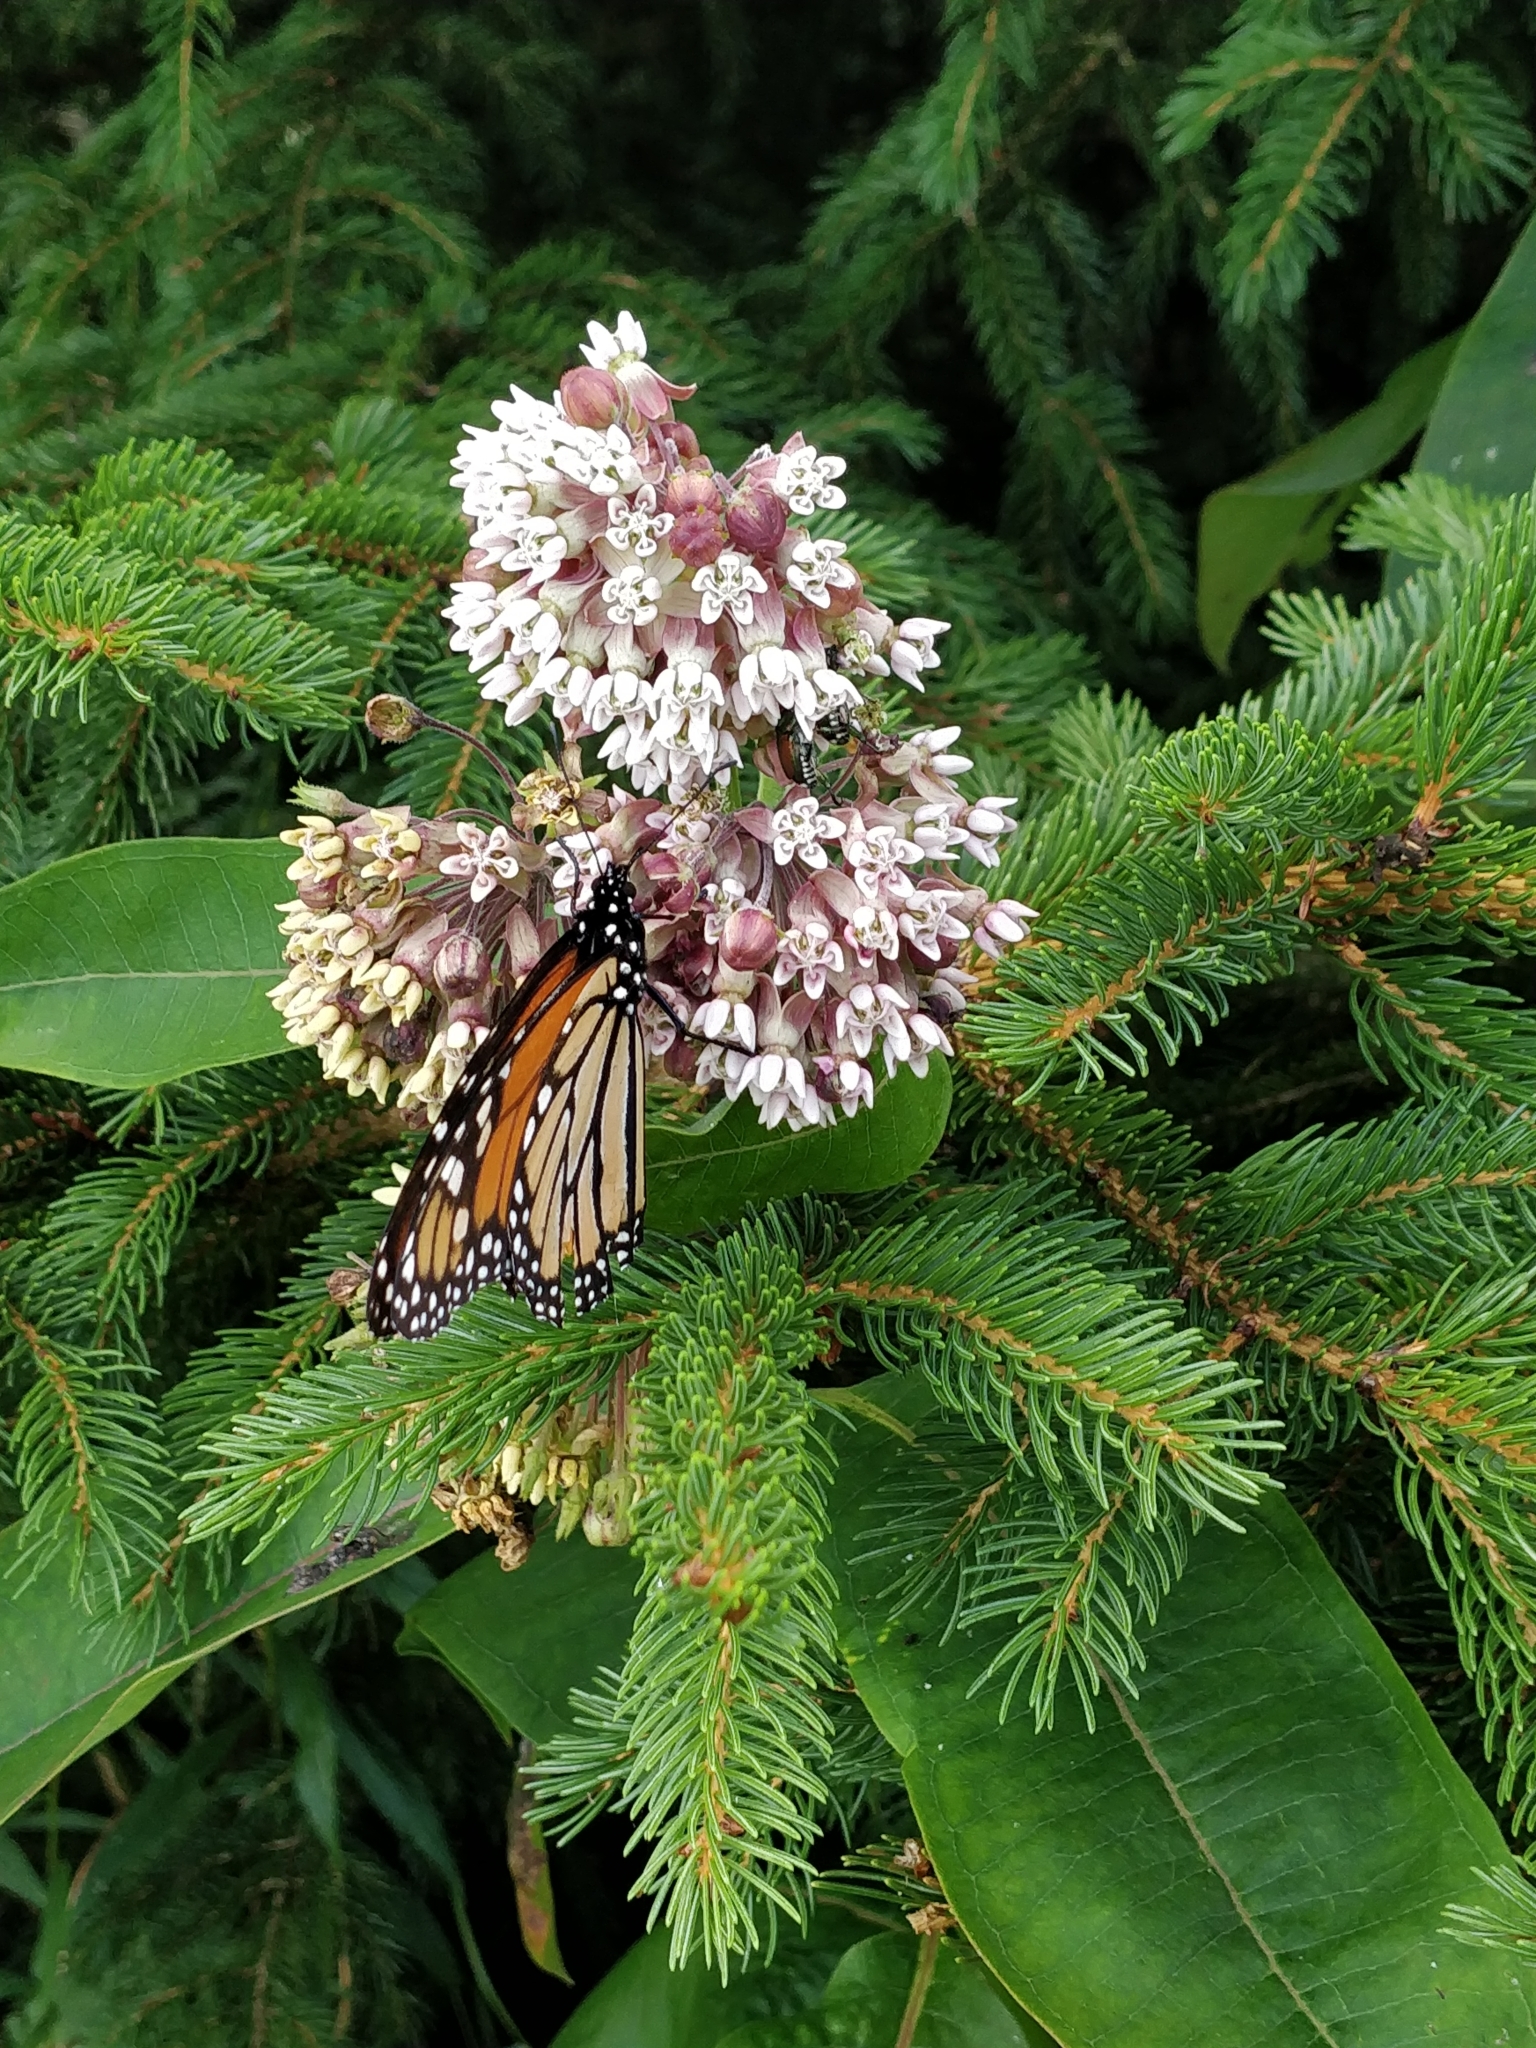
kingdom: Animalia
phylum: Arthropoda
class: Insecta
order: Lepidoptera
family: Nymphalidae
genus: Danaus
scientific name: Danaus plexippus
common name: Monarch
